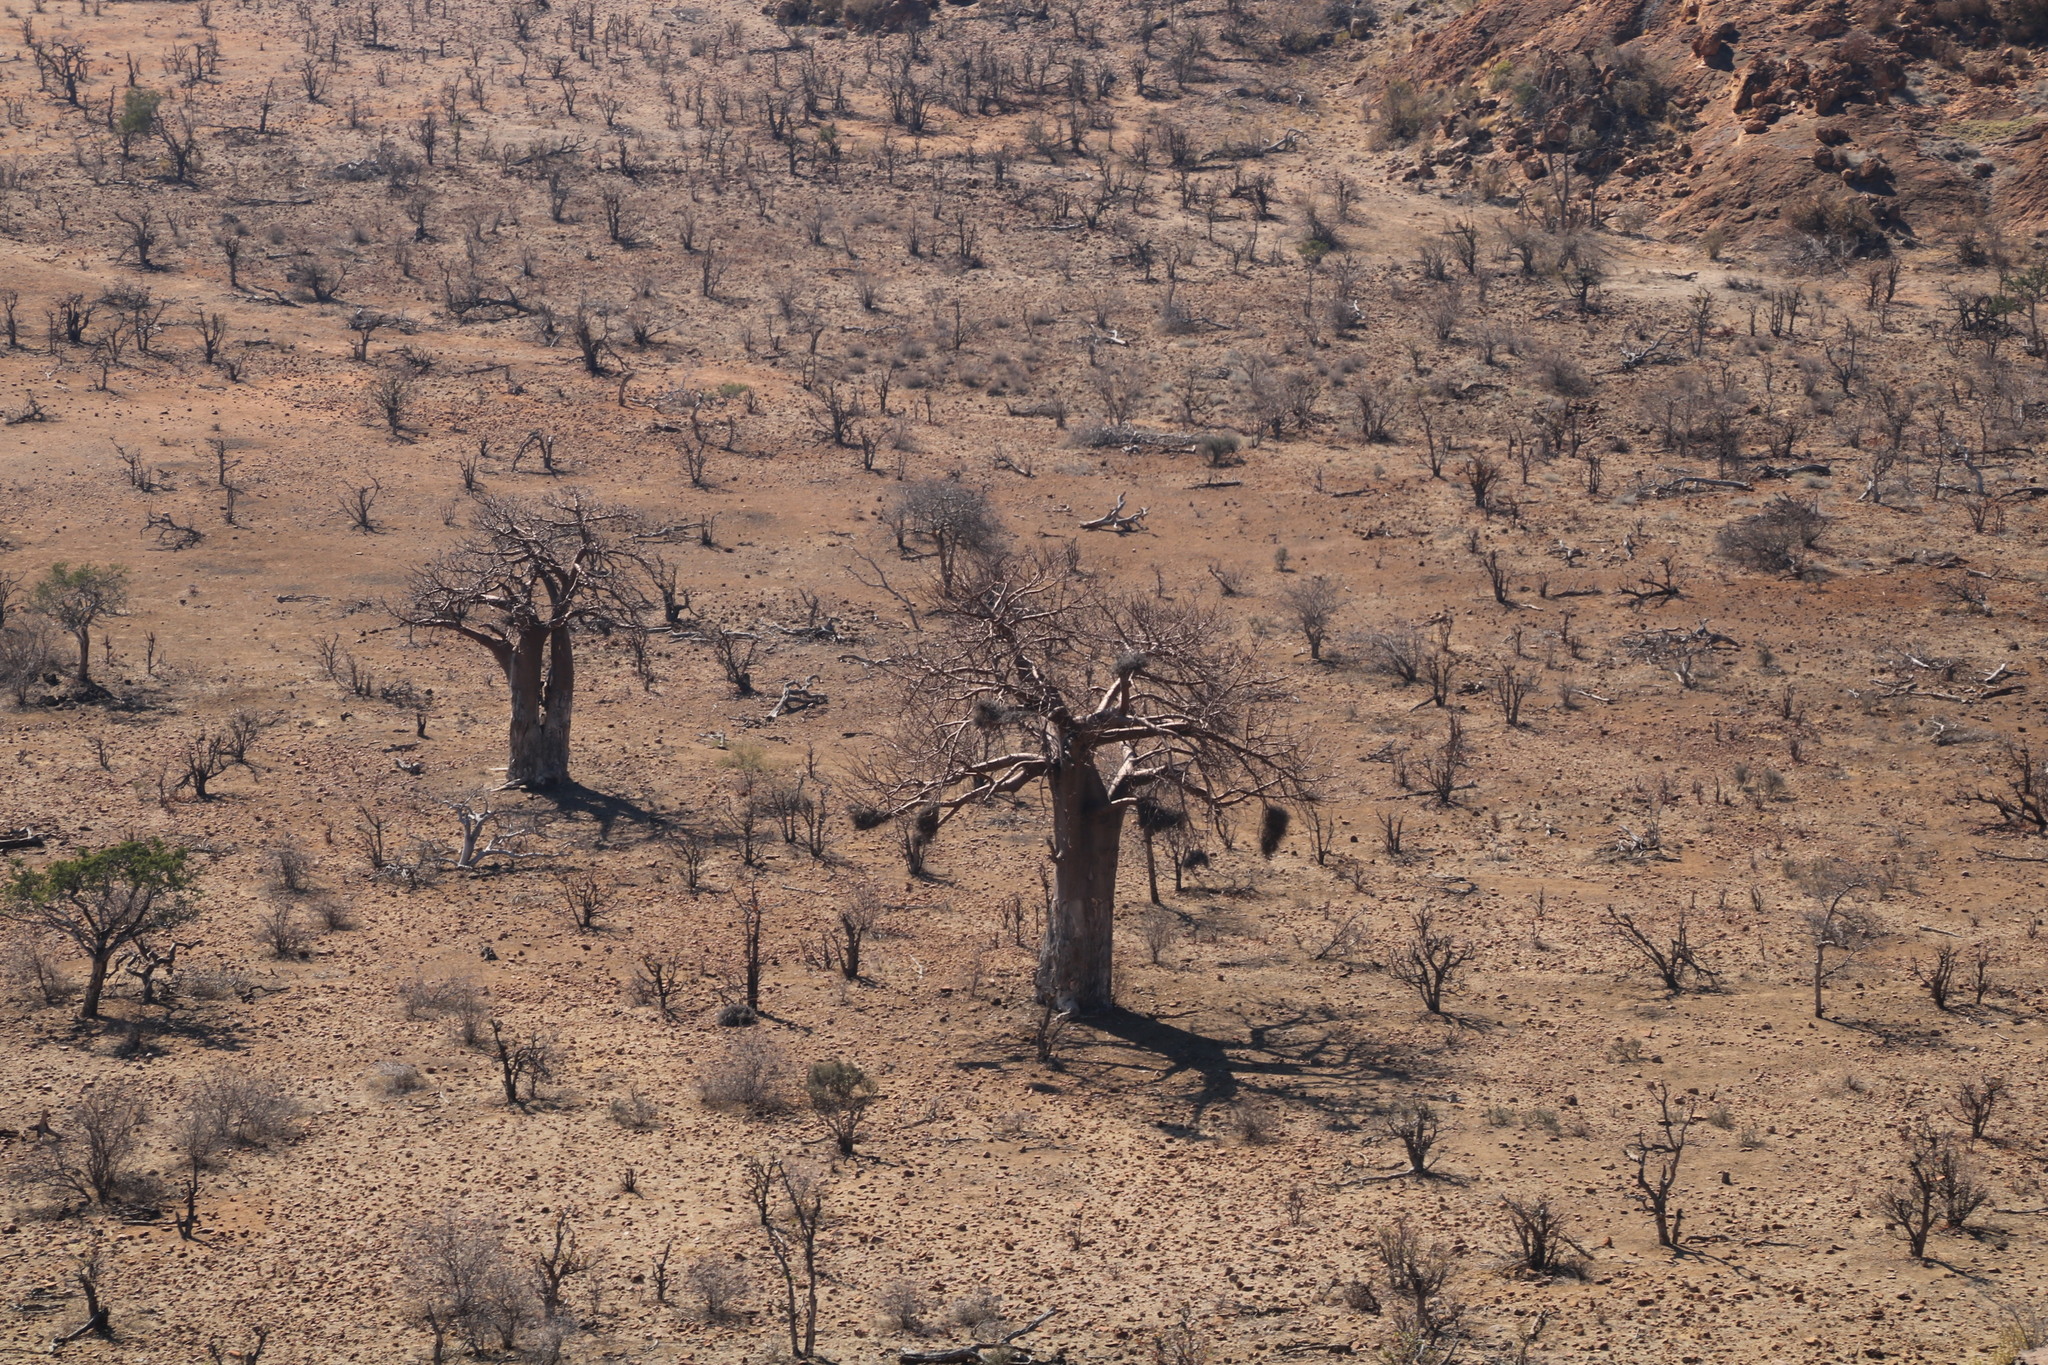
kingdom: Plantae
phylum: Tracheophyta
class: Magnoliopsida
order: Malvales
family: Malvaceae
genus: Adansonia
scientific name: Adansonia digitata
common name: Dead-rat-tree
